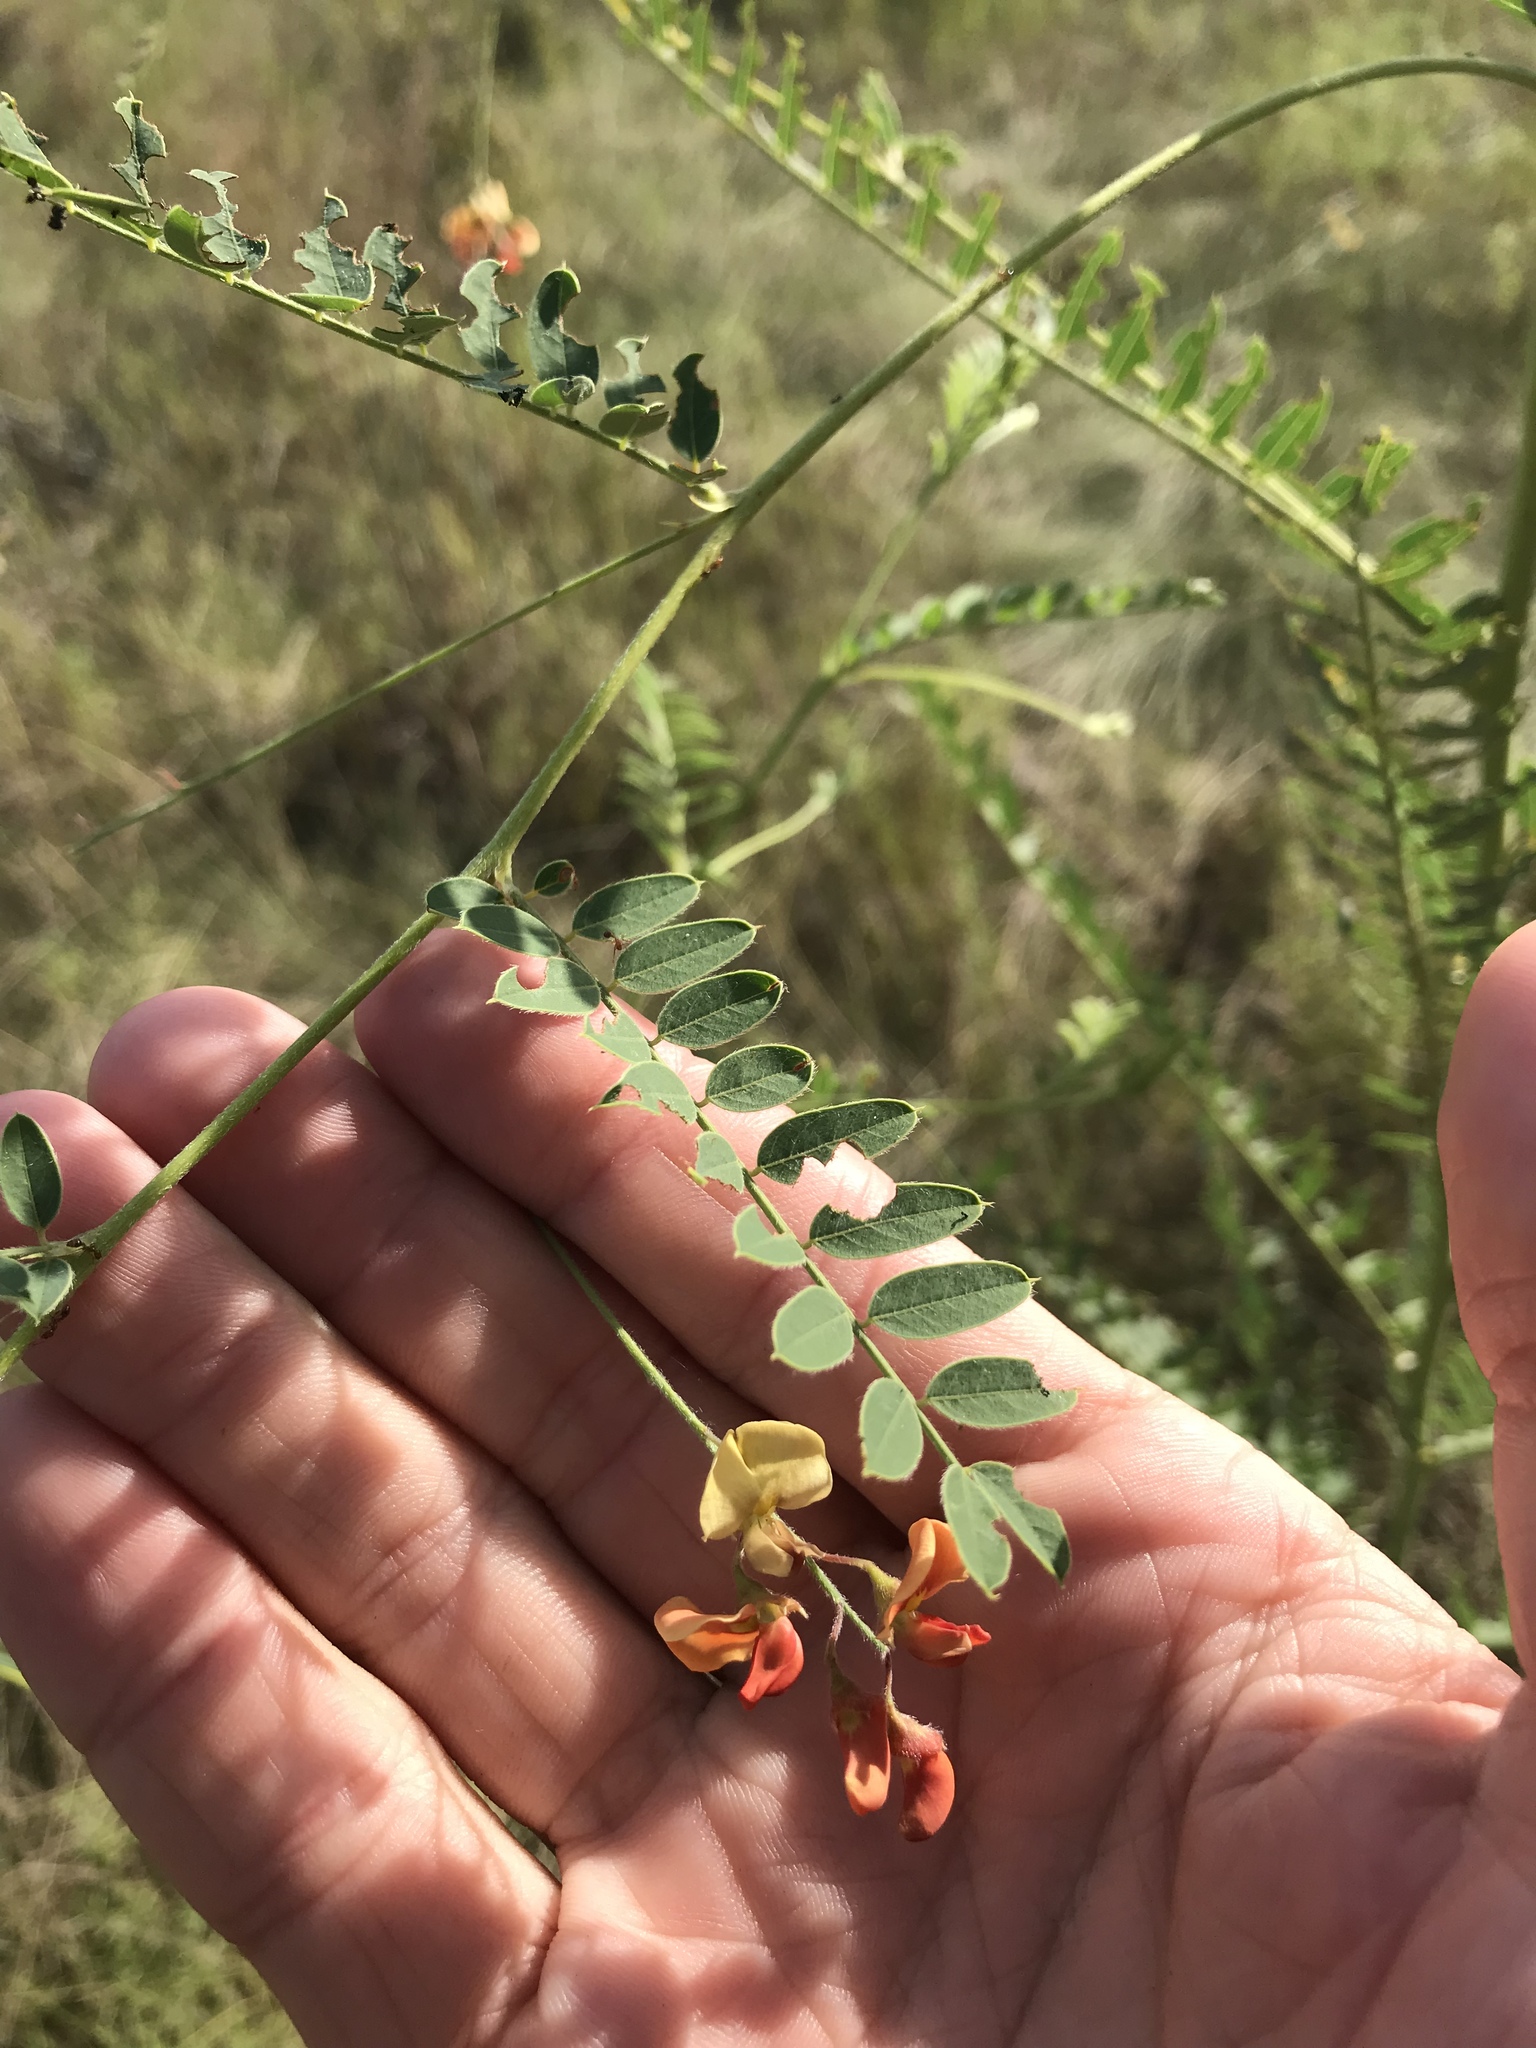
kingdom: Plantae
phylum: Tracheophyta
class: Magnoliopsida
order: Fabales
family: Fabaceae
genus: Sesbania
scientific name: Sesbania vesicaria
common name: Bagpod
